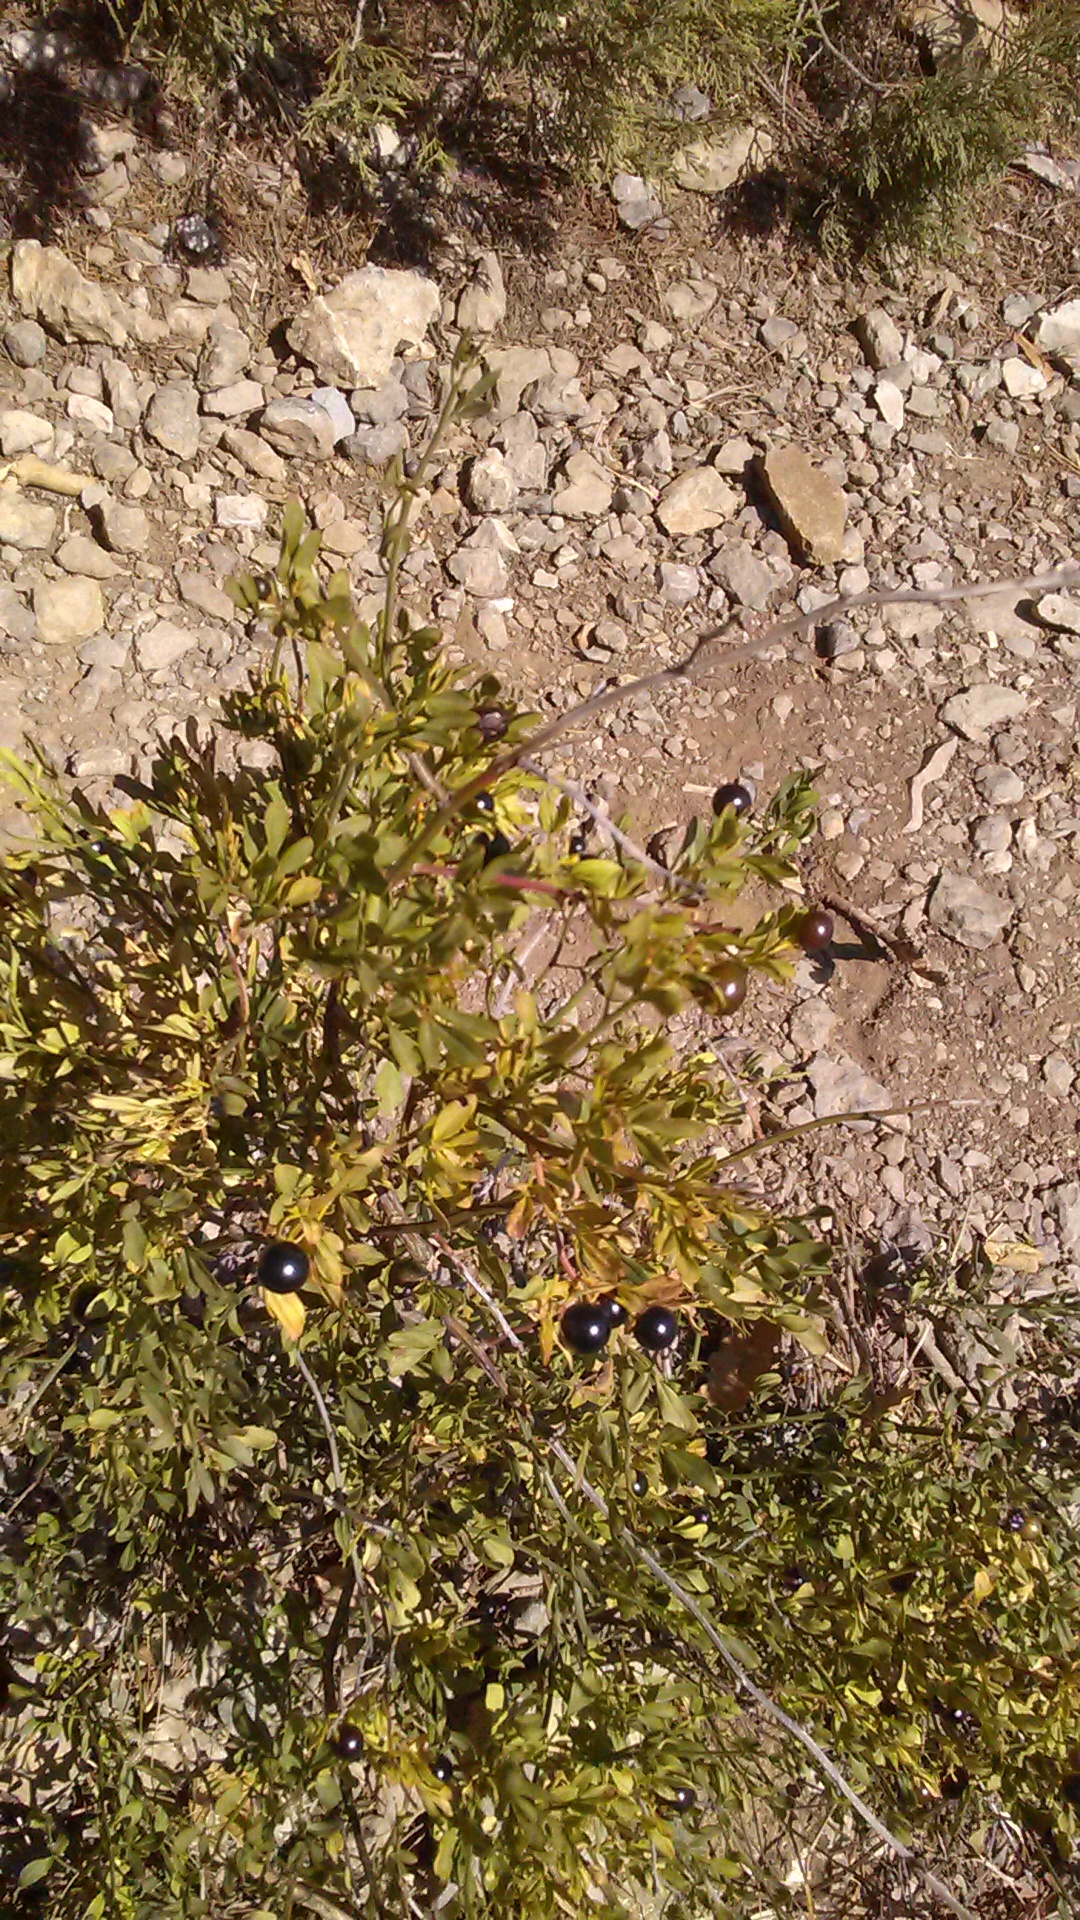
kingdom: Plantae
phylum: Tracheophyta
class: Magnoliopsida
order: Lamiales
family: Oleaceae
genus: Chrysojasminum
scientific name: Chrysojasminum fruticans
